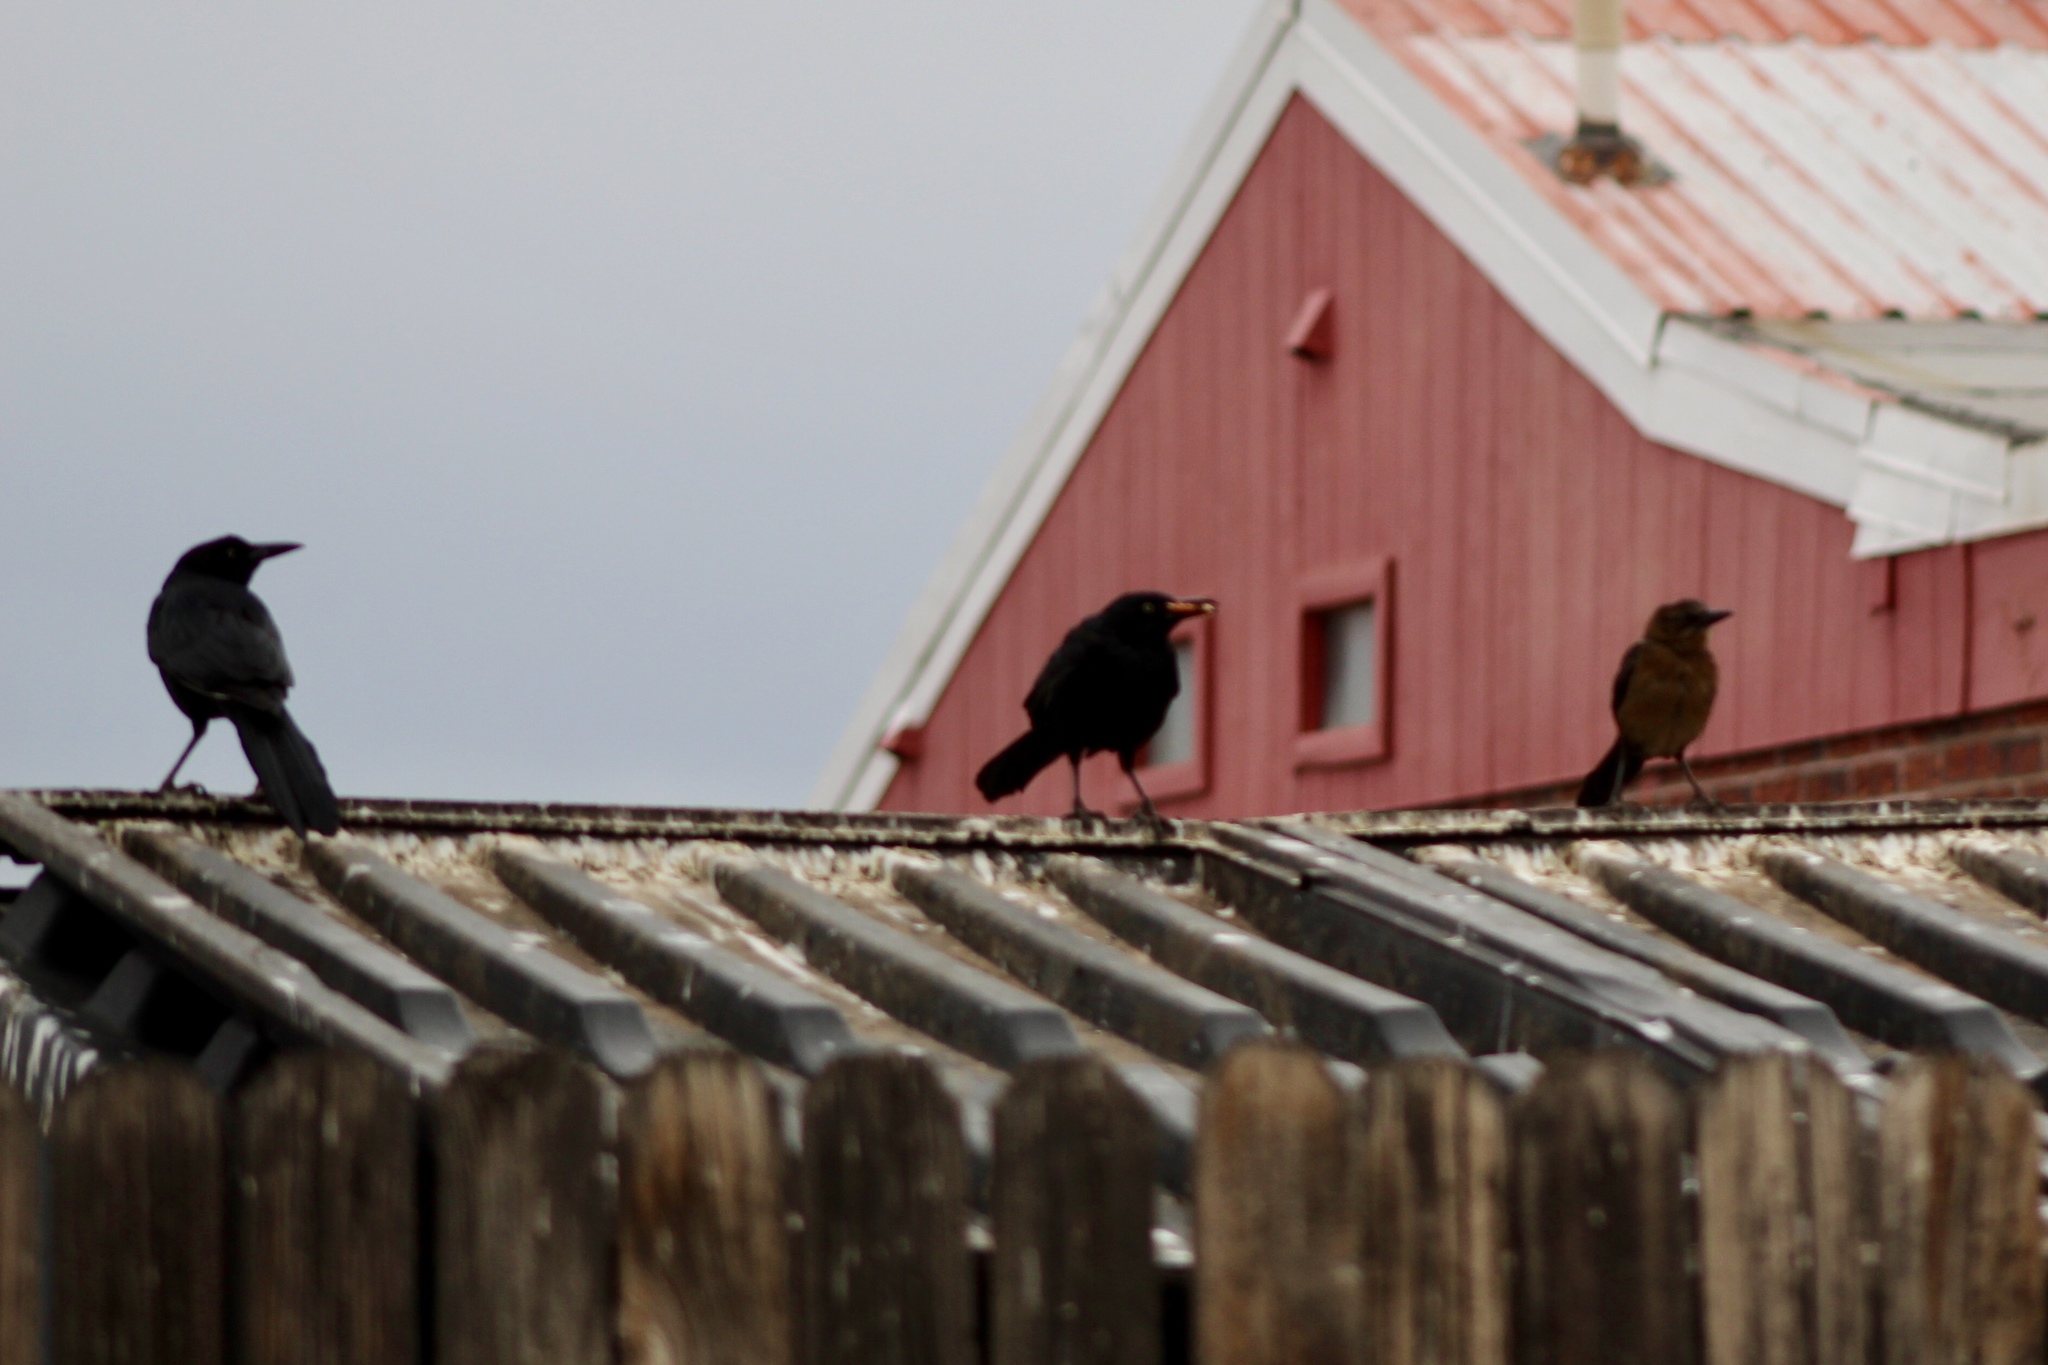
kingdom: Animalia
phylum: Chordata
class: Aves
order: Passeriformes
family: Icteridae
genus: Quiscalus
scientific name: Quiscalus mexicanus
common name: Great-tailed grackle
